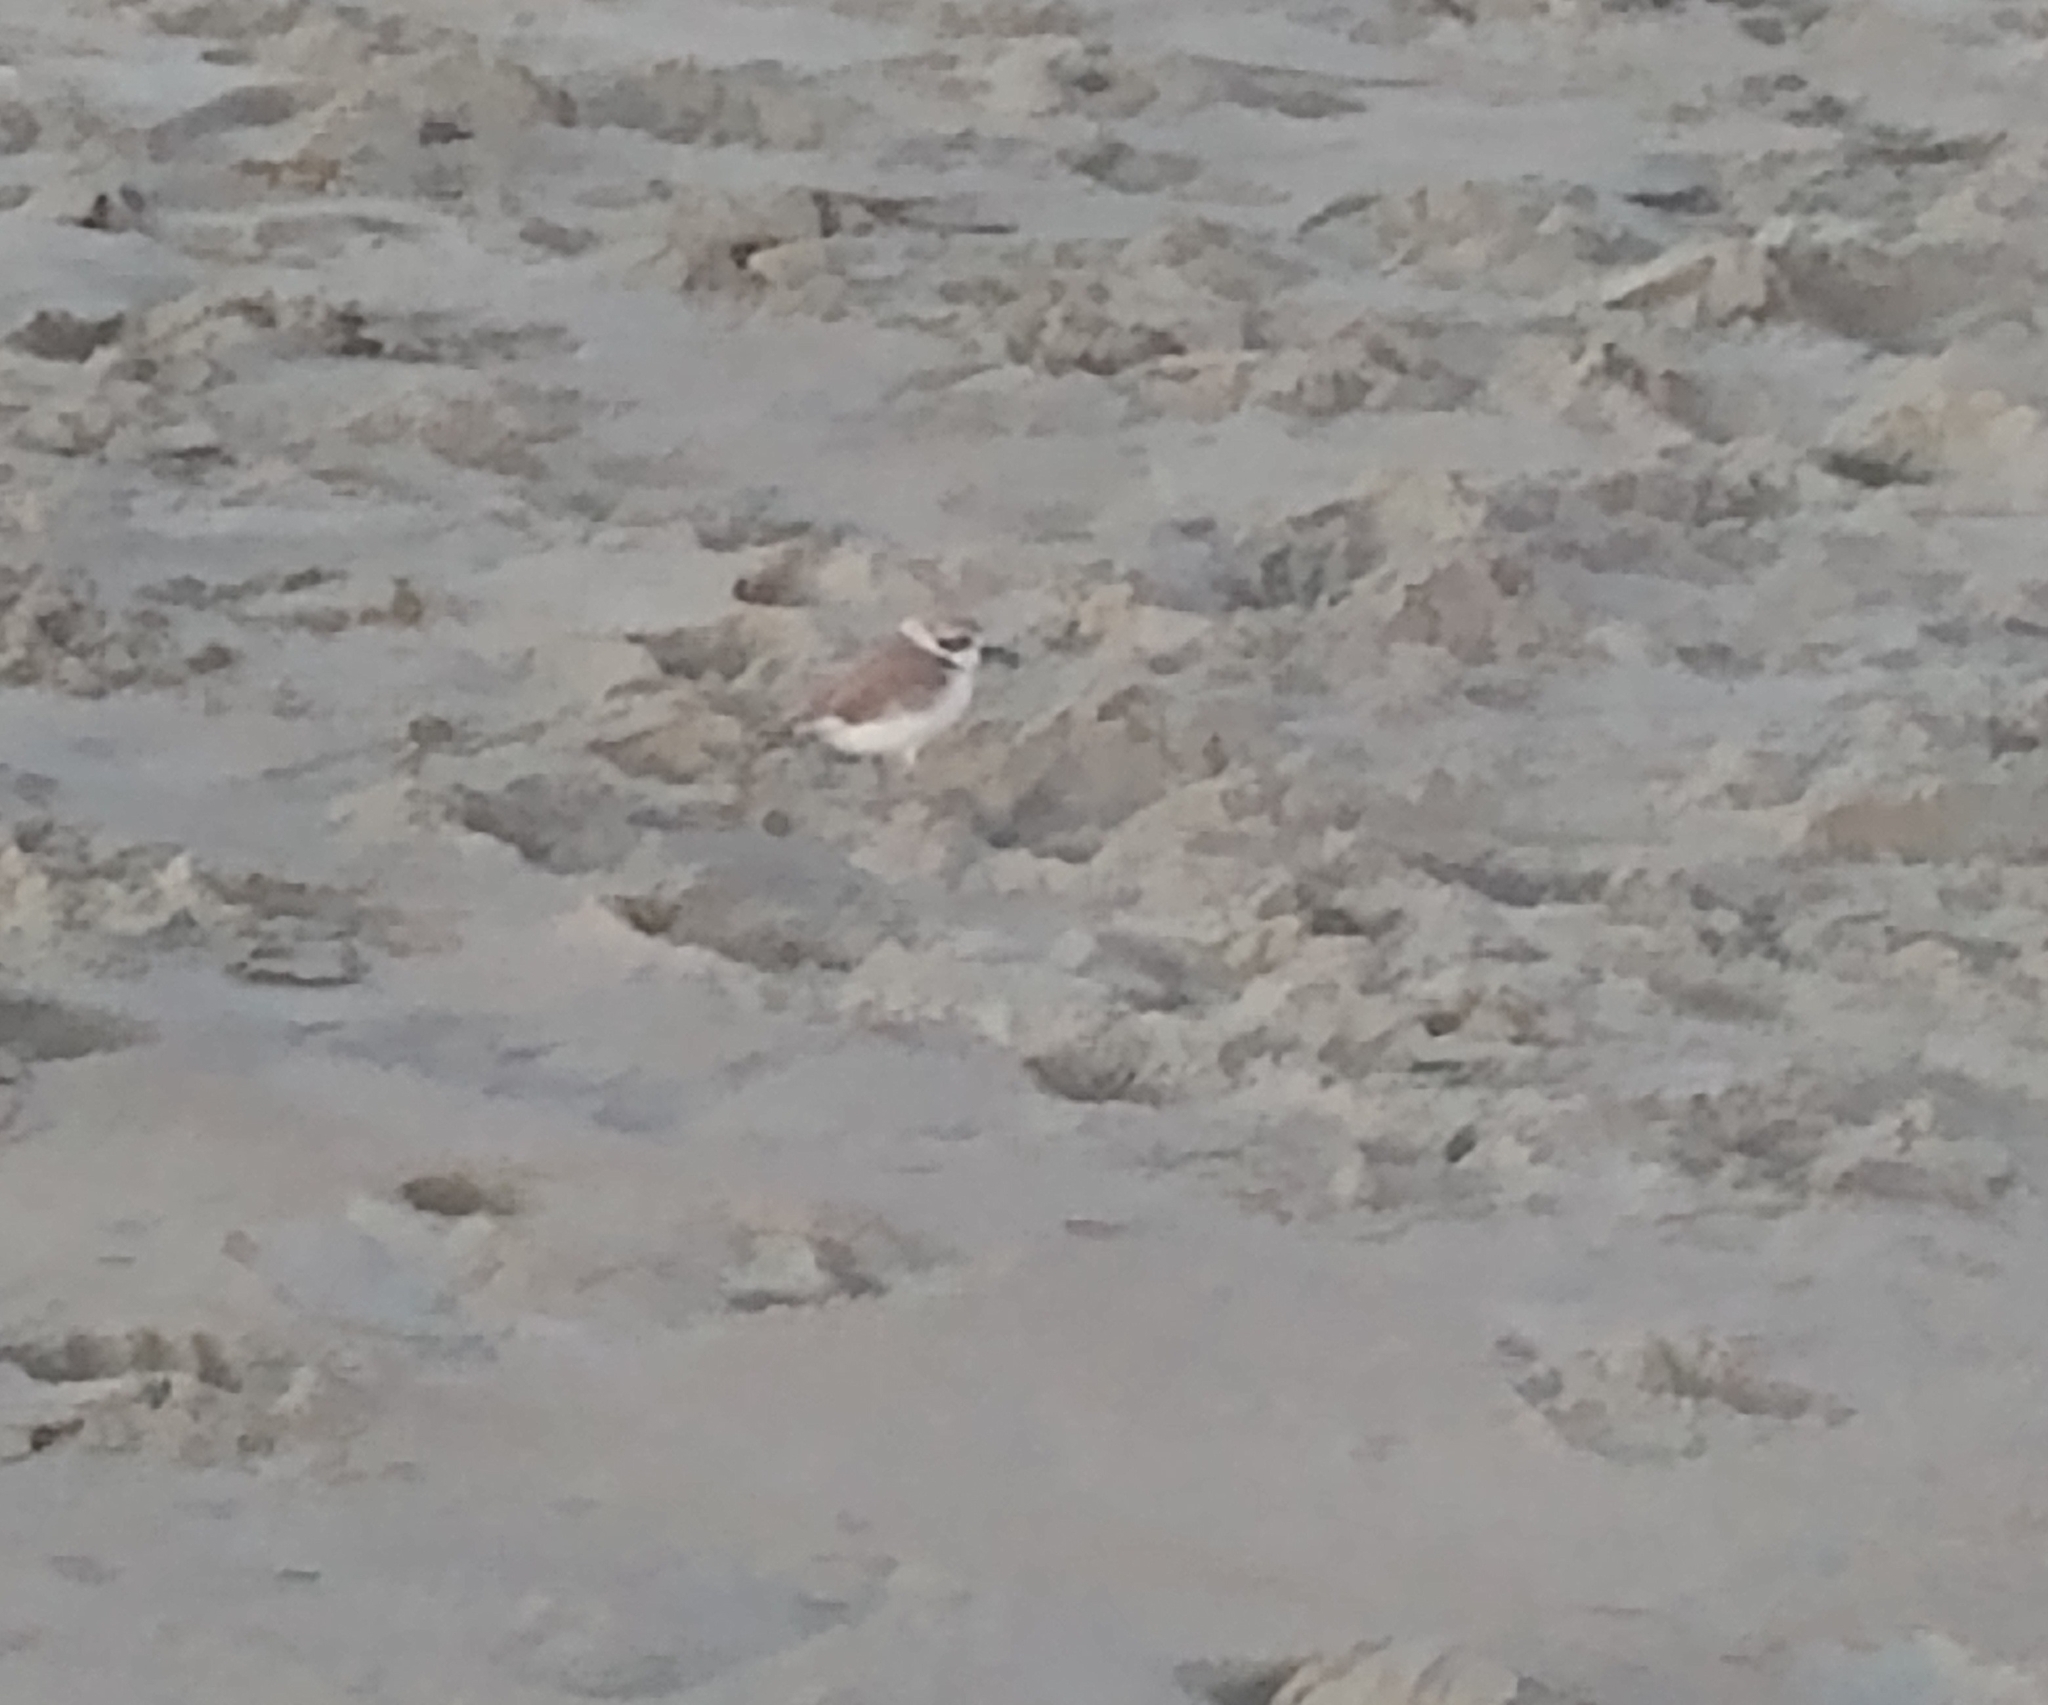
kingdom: Animalia
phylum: Chordata
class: Aves
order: Charadriiformes
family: Charadriidae
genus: Anarhynchus
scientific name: Anarhynchus
